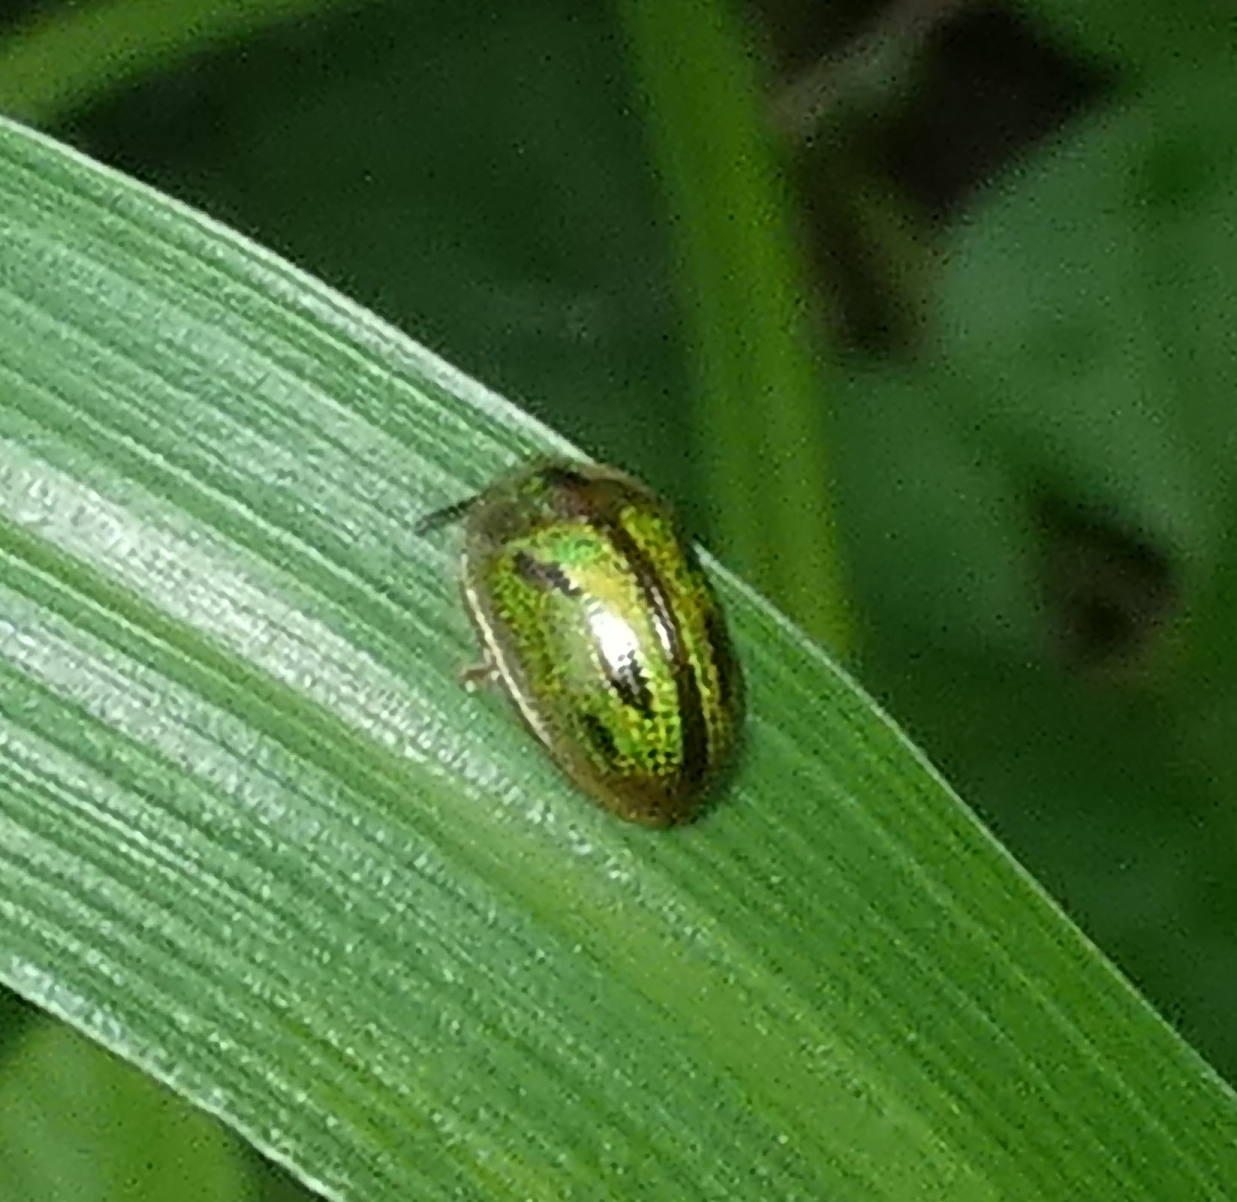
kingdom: Animalia
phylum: Arthropoda
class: Insecta
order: Coleoptera
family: Chrysomelidae
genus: Bradycassis
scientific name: Bradycassis romani
